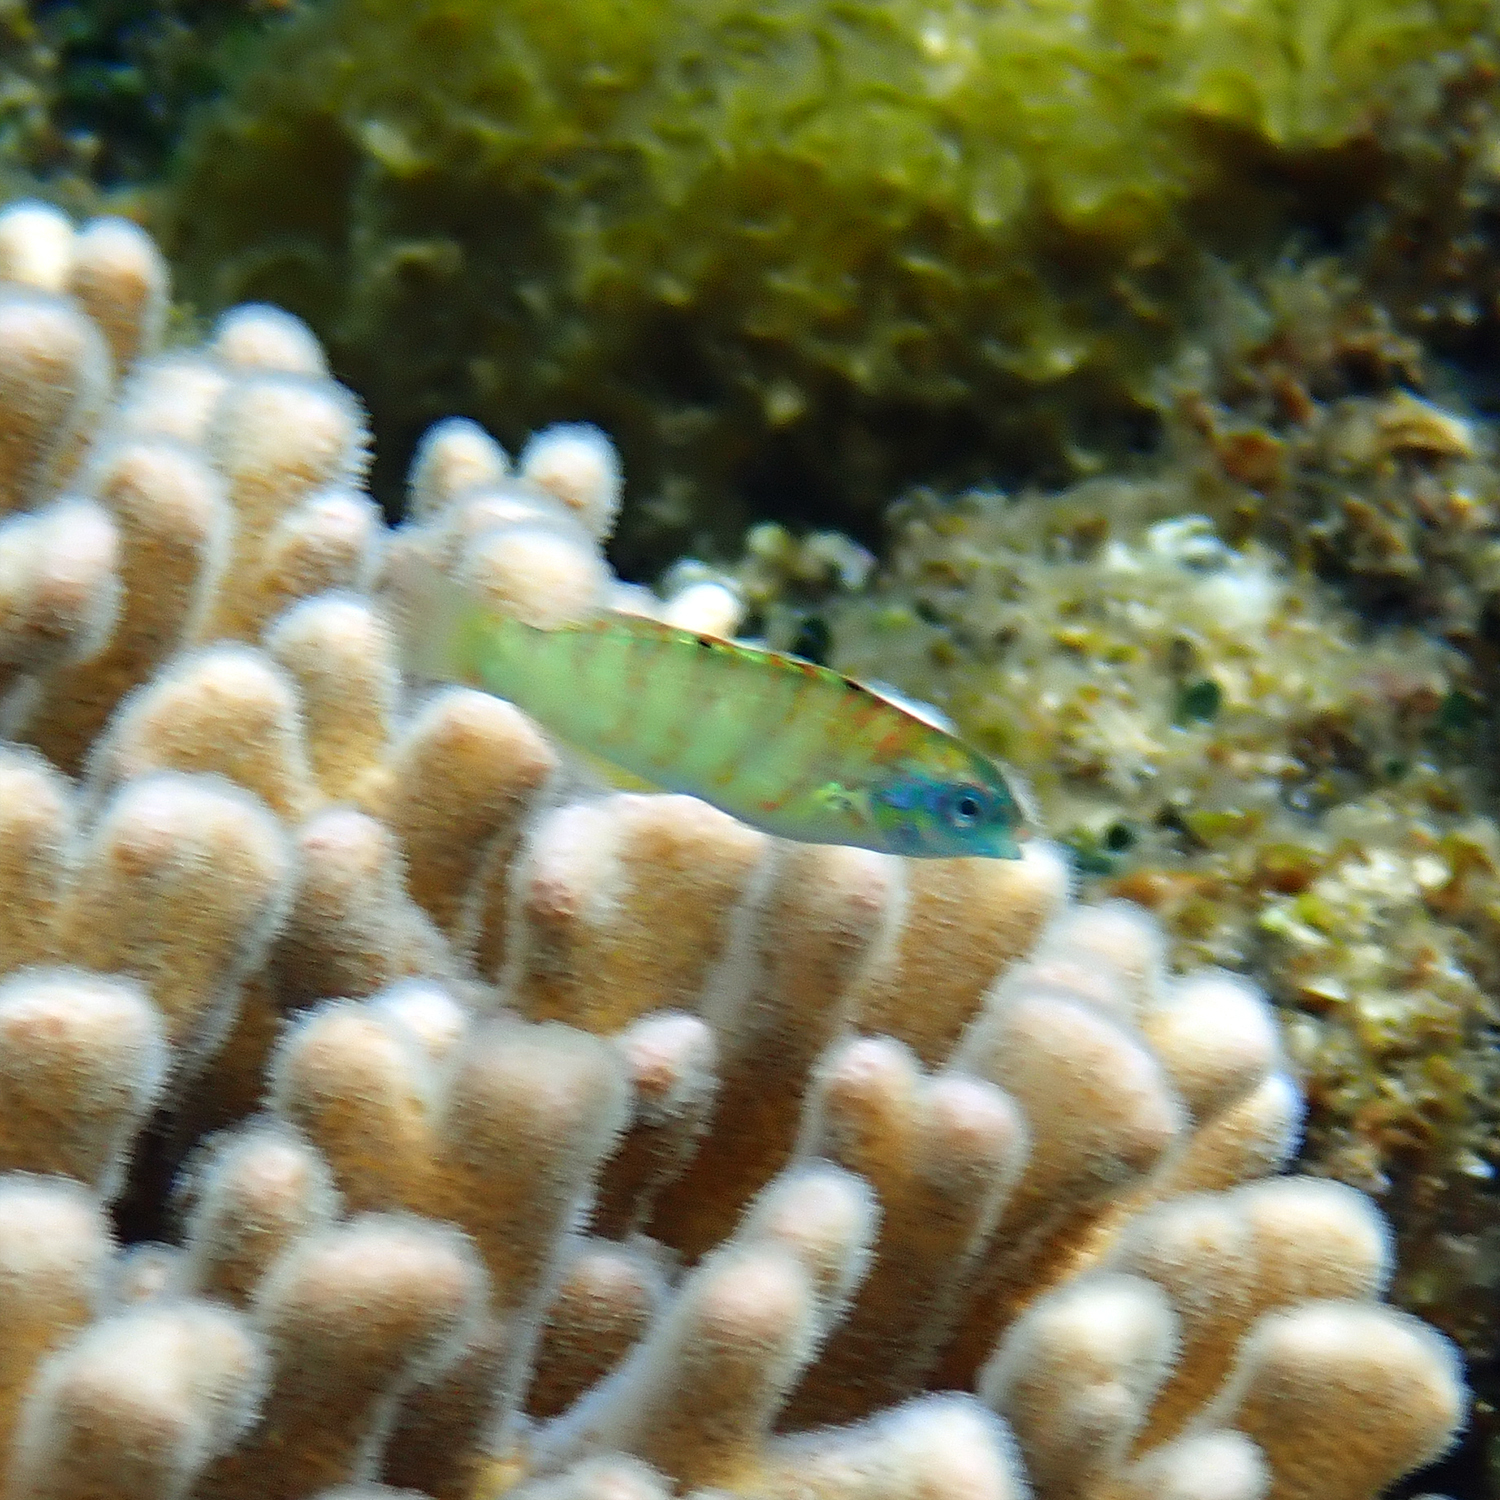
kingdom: Animalia
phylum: Chordata
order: Perciformes
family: Labridae
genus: Thalassoma
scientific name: Thalassoma hardwicke
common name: Sixbar wrasse
